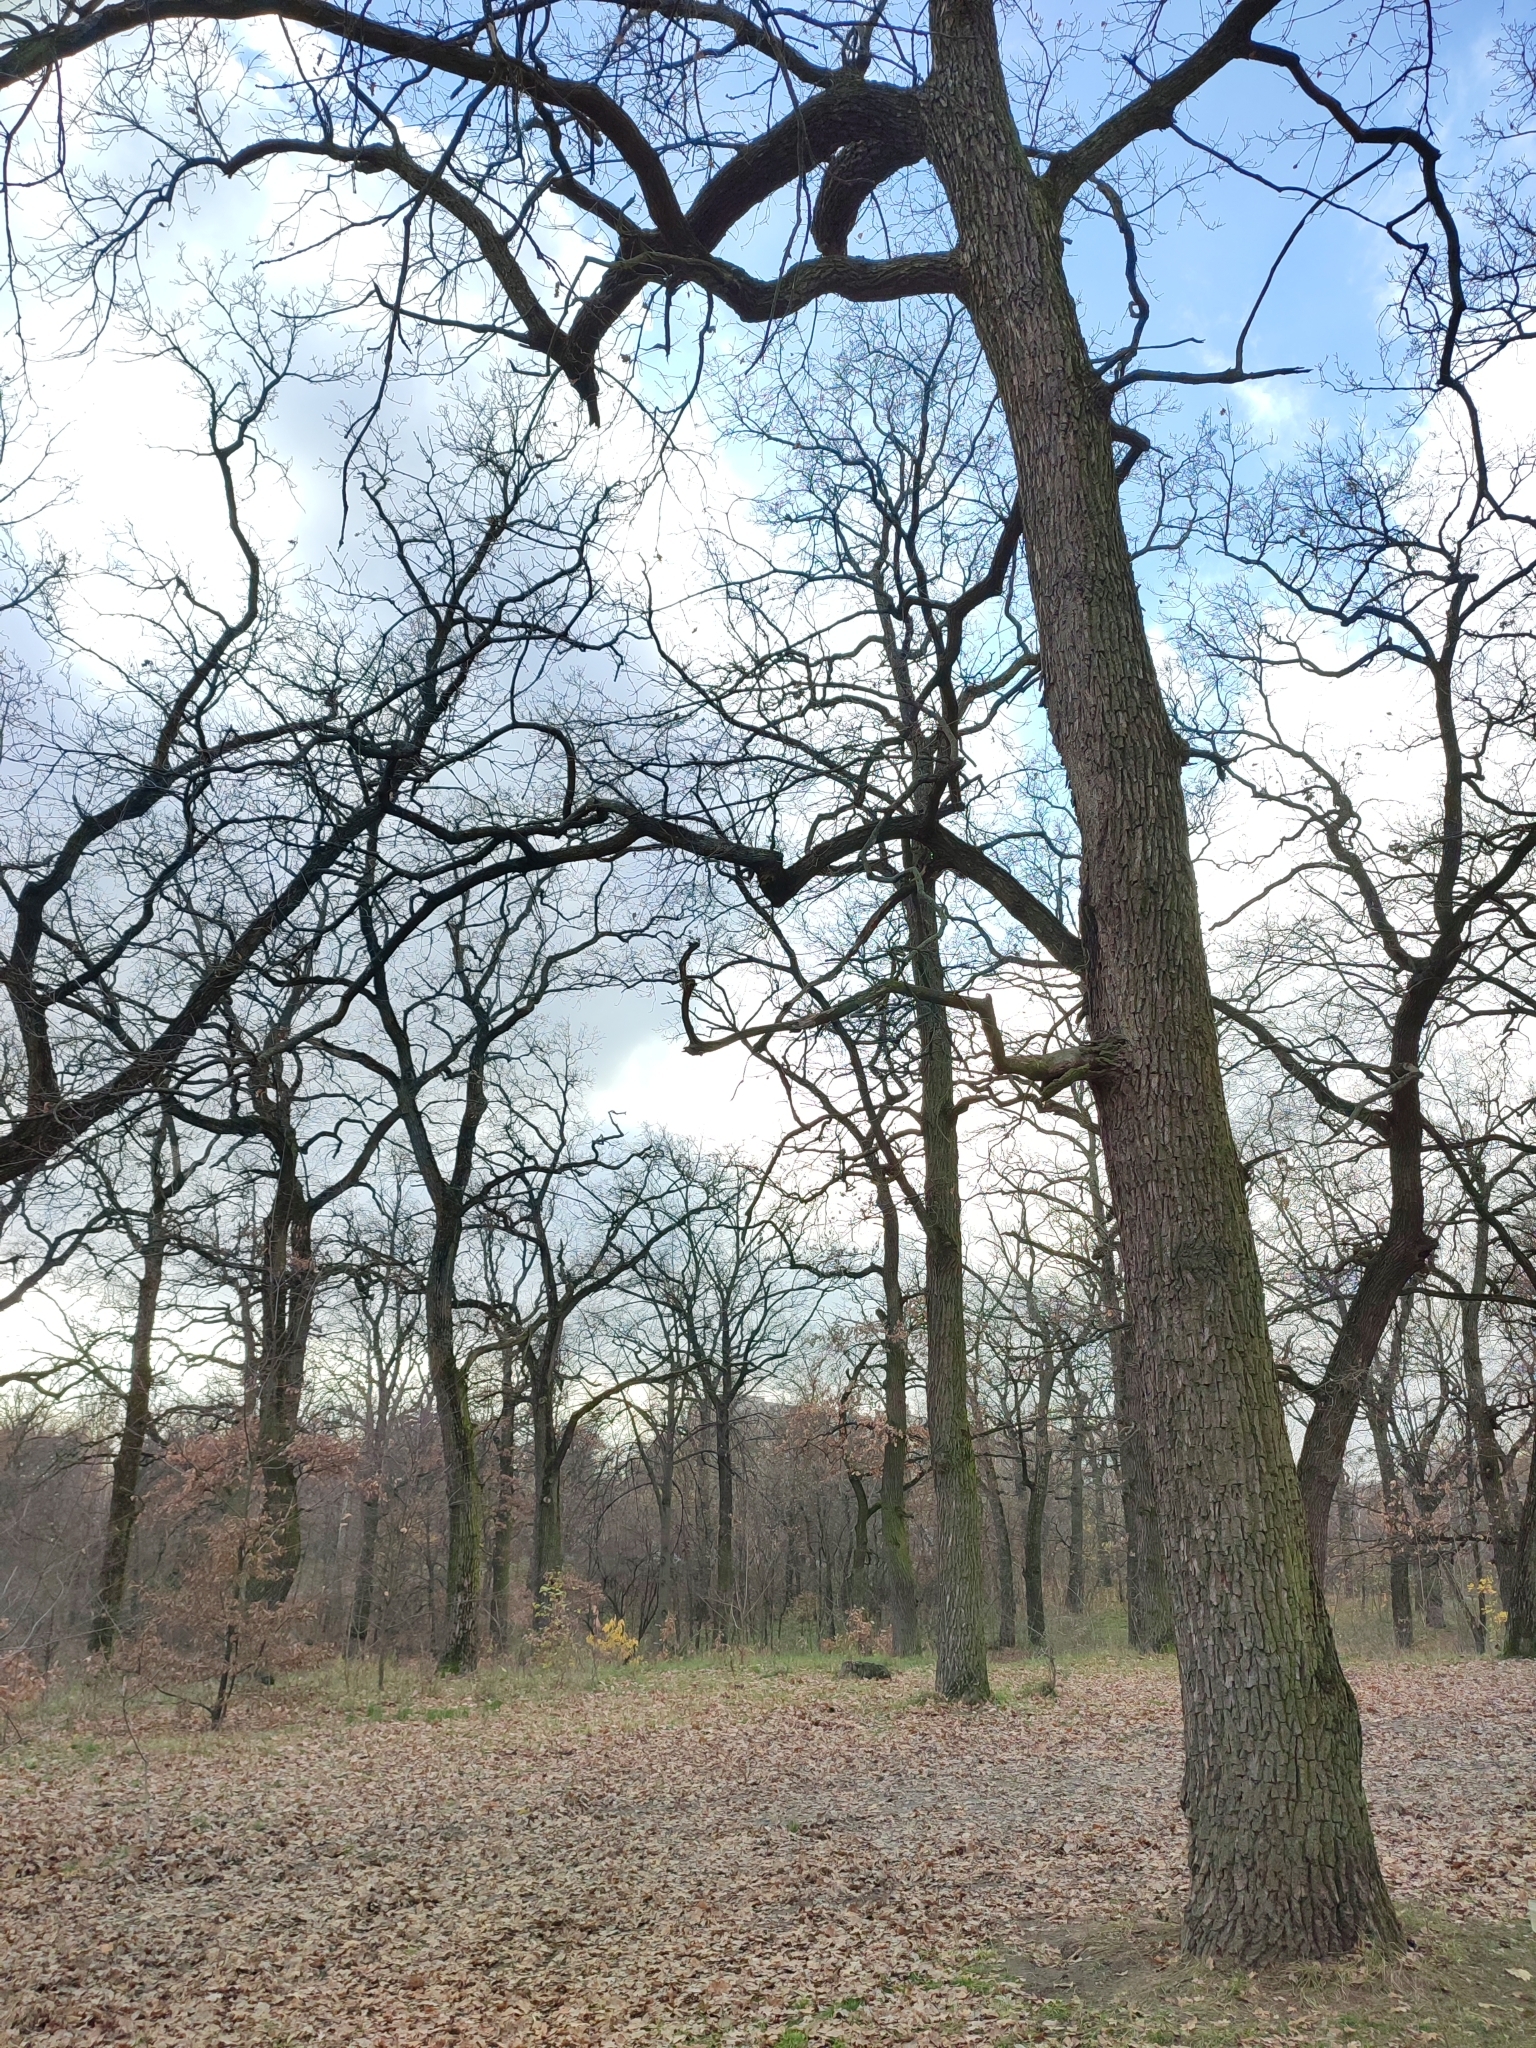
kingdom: Plantae
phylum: Tracheophyta
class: Magnoliopsida
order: Fagales
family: Fagaceae
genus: Quercus
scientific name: Quercus robur
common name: Pedunculate oak
